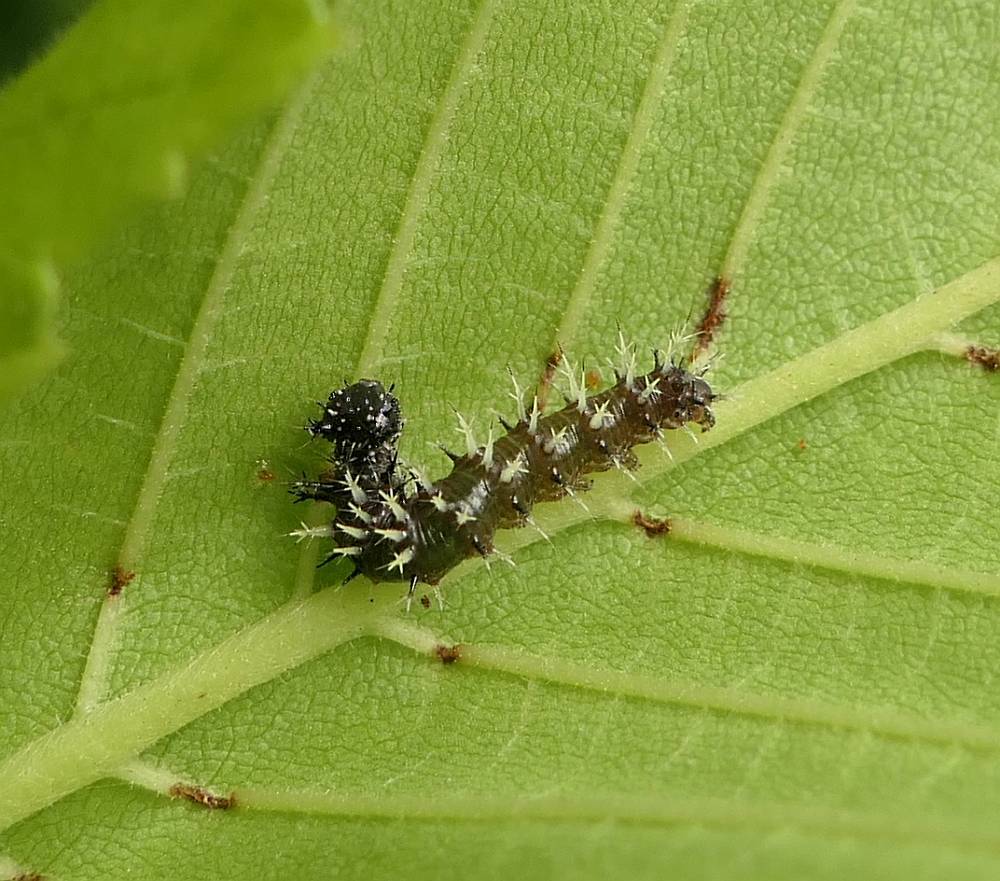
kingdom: Animalia
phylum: Arthropoda
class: Insecta
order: Lepidoptera
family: Nymphalidae
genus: Polygonia
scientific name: Polygonia comma
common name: Eastern comma
